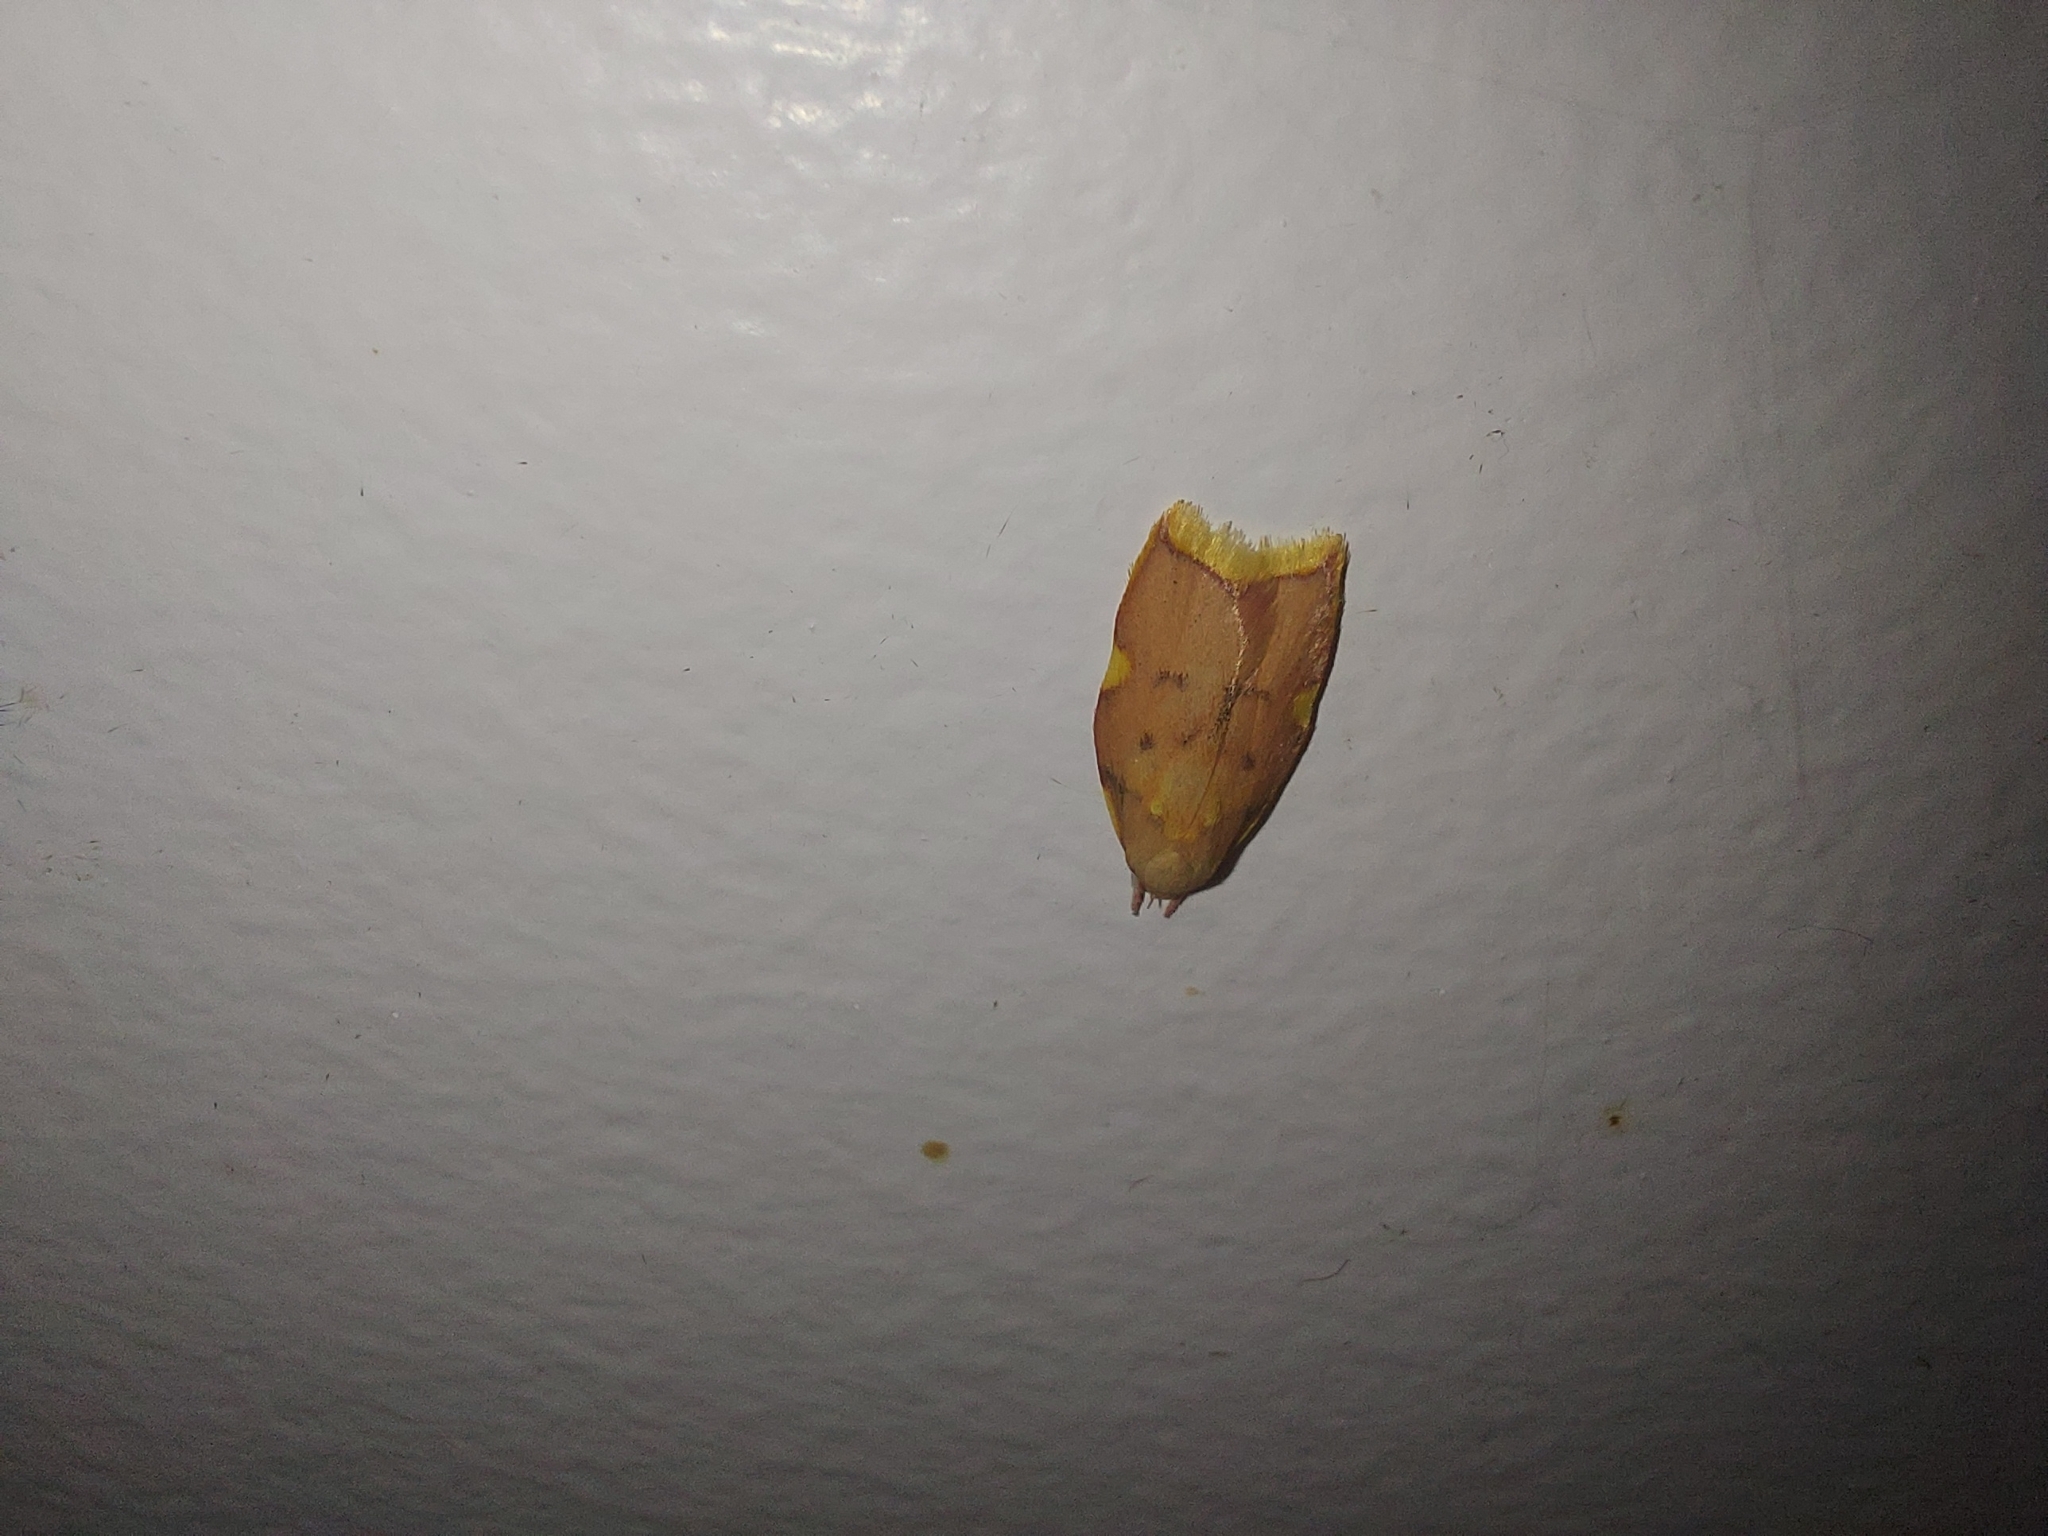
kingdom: Animalia
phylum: Arthropoda
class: Insecta
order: Lepidoptera
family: Peleopodidae
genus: Carcina
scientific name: Carcina quercana
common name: Moth
